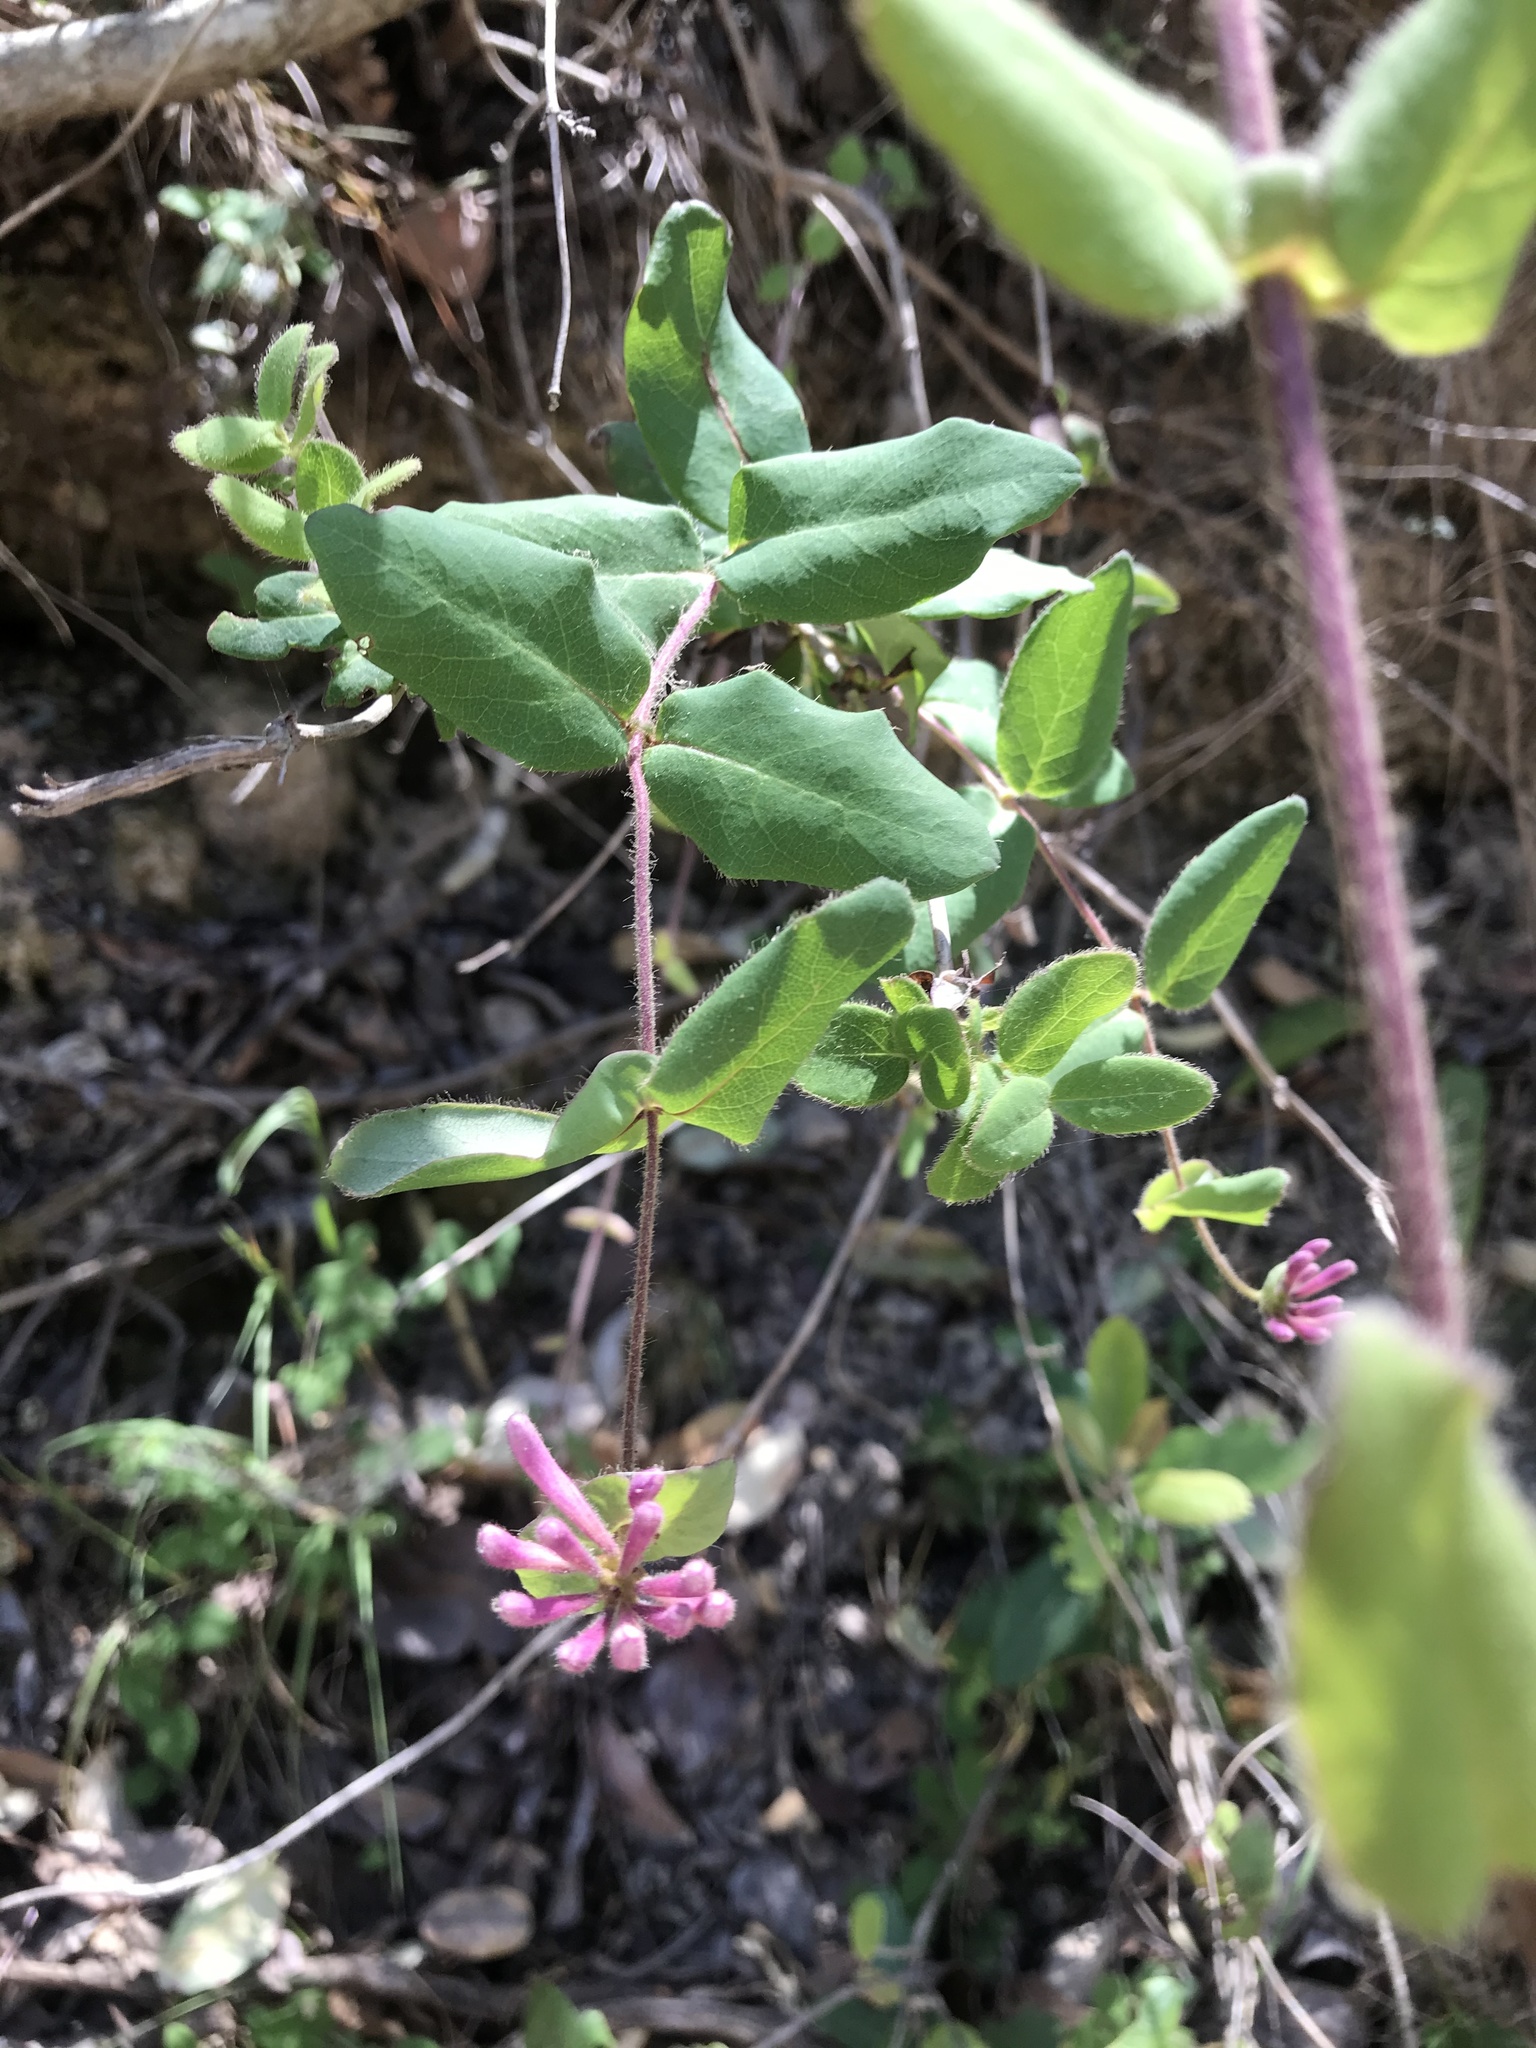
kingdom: Plantae
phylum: Tracheophyta
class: Magnoliopsida
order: Dipsacales
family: Caprifoliaceae
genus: Lonicera
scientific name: Lonicera hispidula
